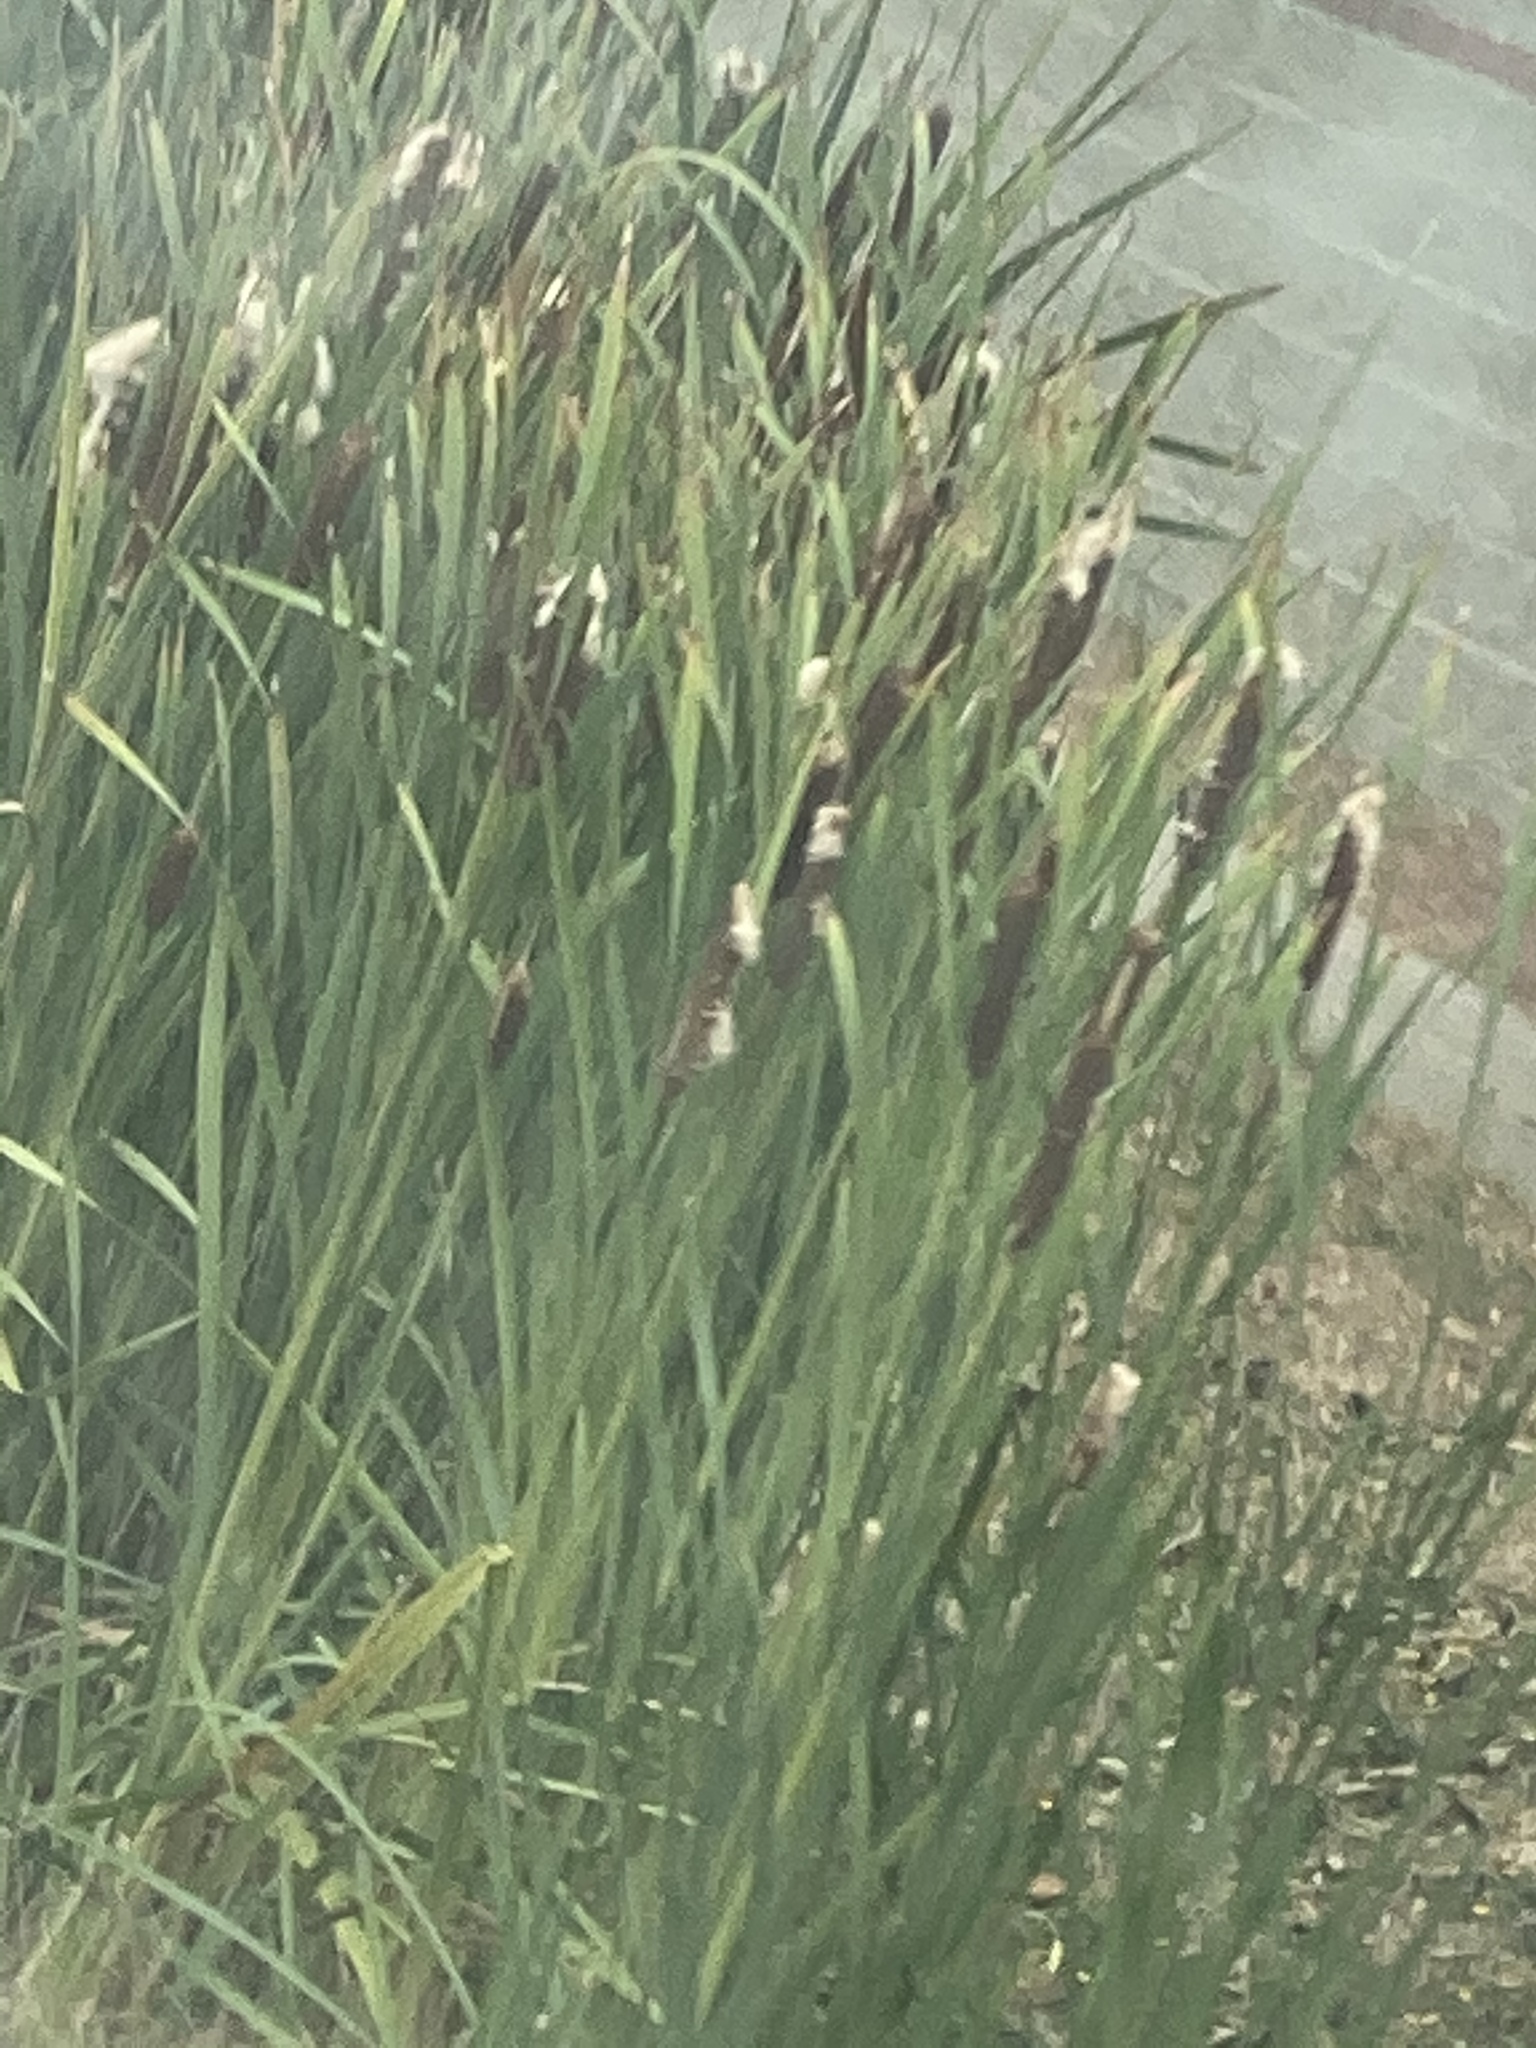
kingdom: Plantae
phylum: Tracheophyta
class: Liliopsida
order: Poales
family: Typhaceae
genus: Typha
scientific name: Typha latifolia
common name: Broadleaf cattail
